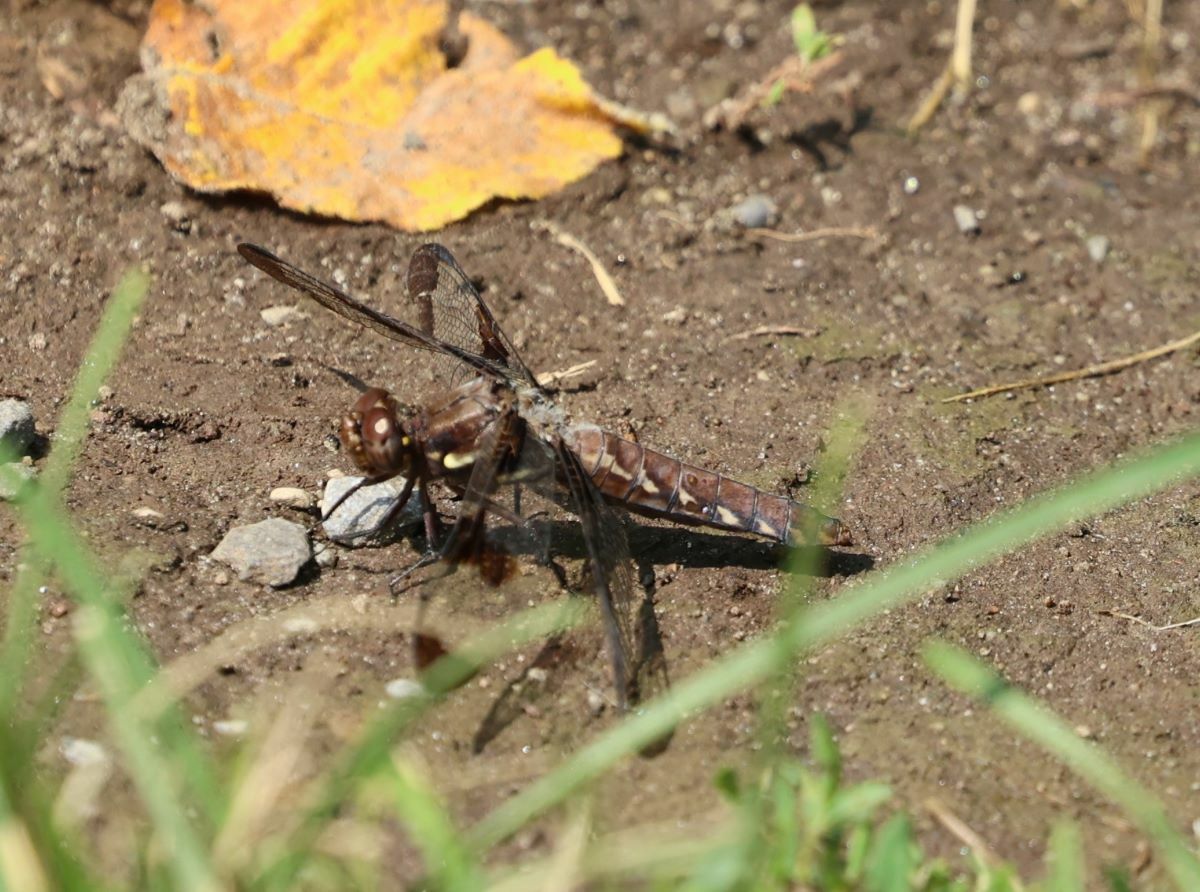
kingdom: Animalia
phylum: Arthropoda
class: Insecta
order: Odonata
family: Libellulidae
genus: Plathemis
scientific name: Plathemis lydia
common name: Common whitetail
